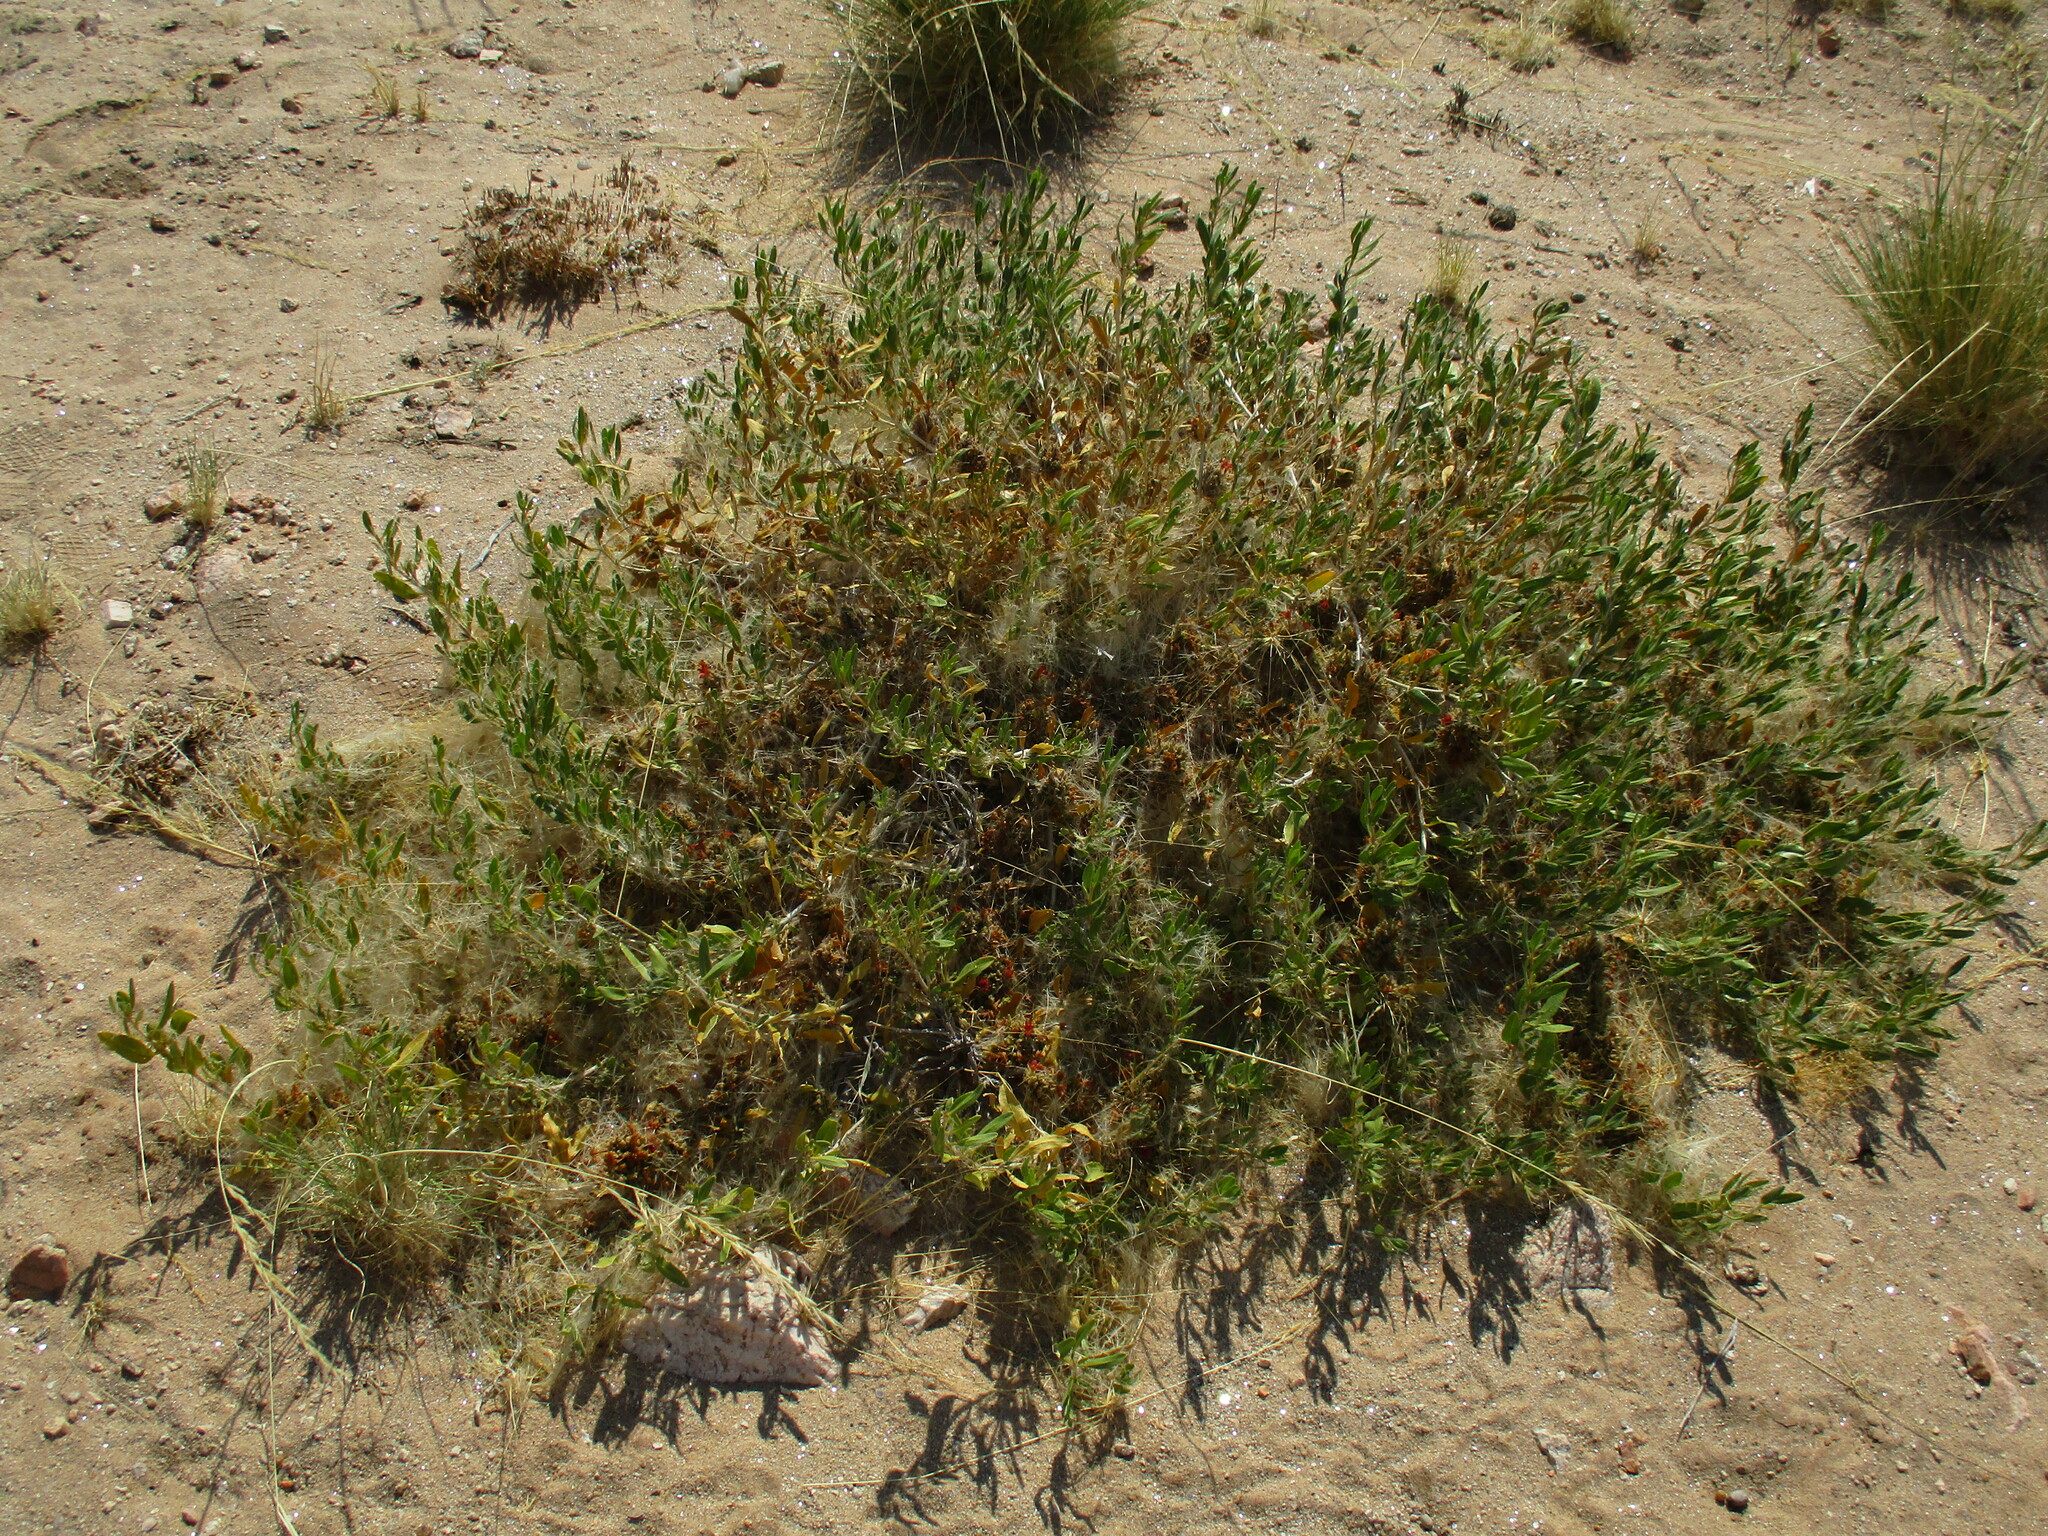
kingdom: Plantae
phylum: Tracheophyta
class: Magnoliopsida
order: Lamiales
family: Acanthaceae
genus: Petalidium
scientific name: Petalidium setosum
